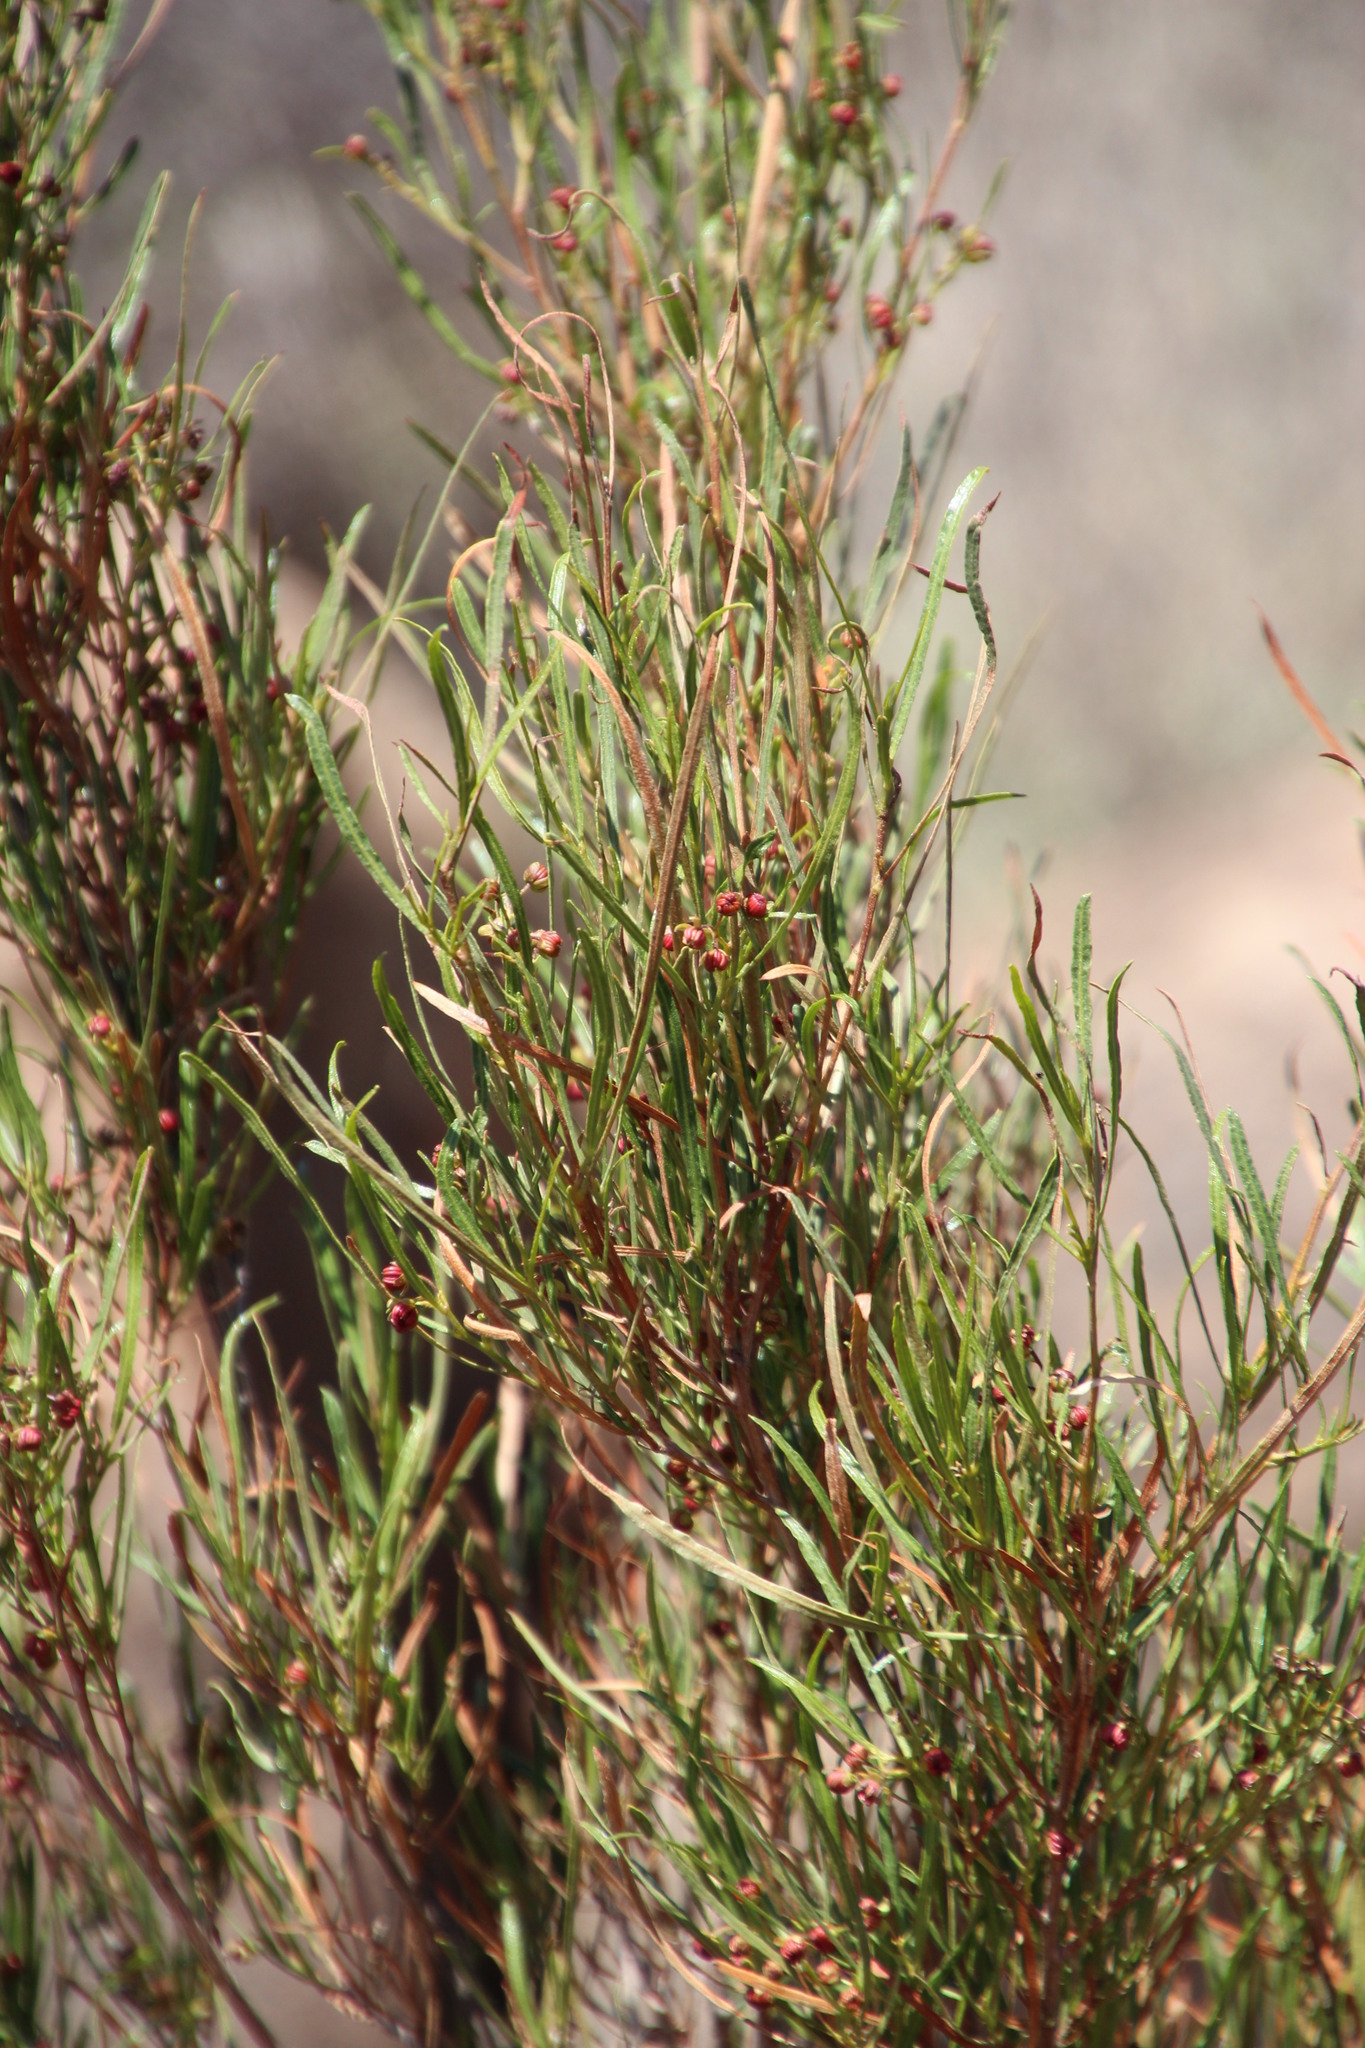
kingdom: Plantae
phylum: Tracheophyta
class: Magnoliopsida
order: Sapindales
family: Sapindaceae
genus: Dodonaea
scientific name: Dodonaea viscosa
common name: Hopbush
